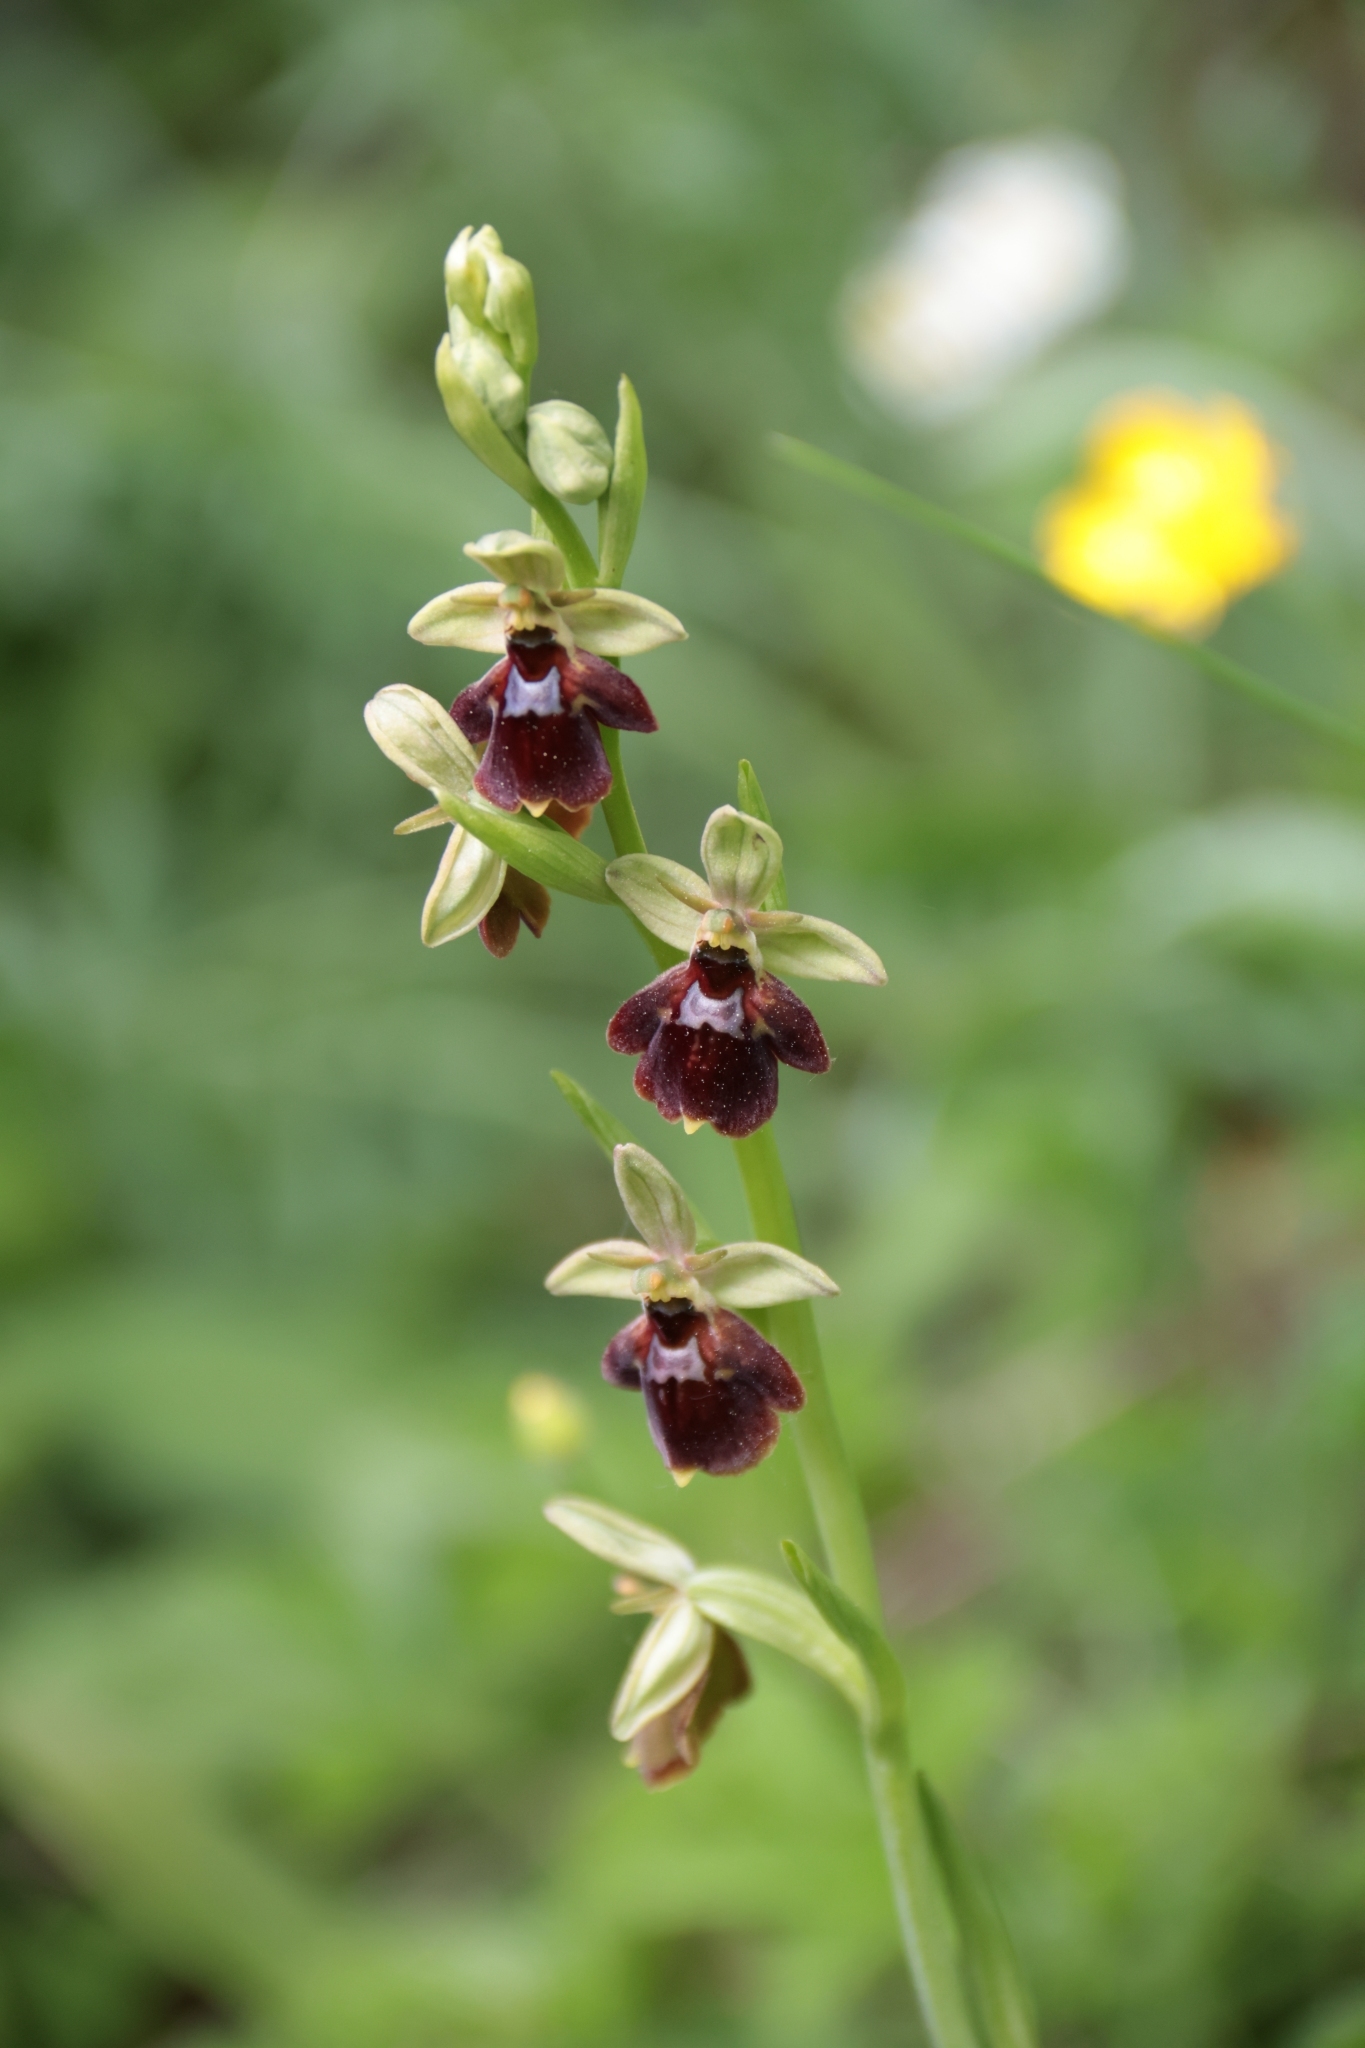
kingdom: Plantae
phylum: Tracheophyta
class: Liliopsida
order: Asparagales
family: Orchidaceae
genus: Ophrys
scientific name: Ophrys devenensis
